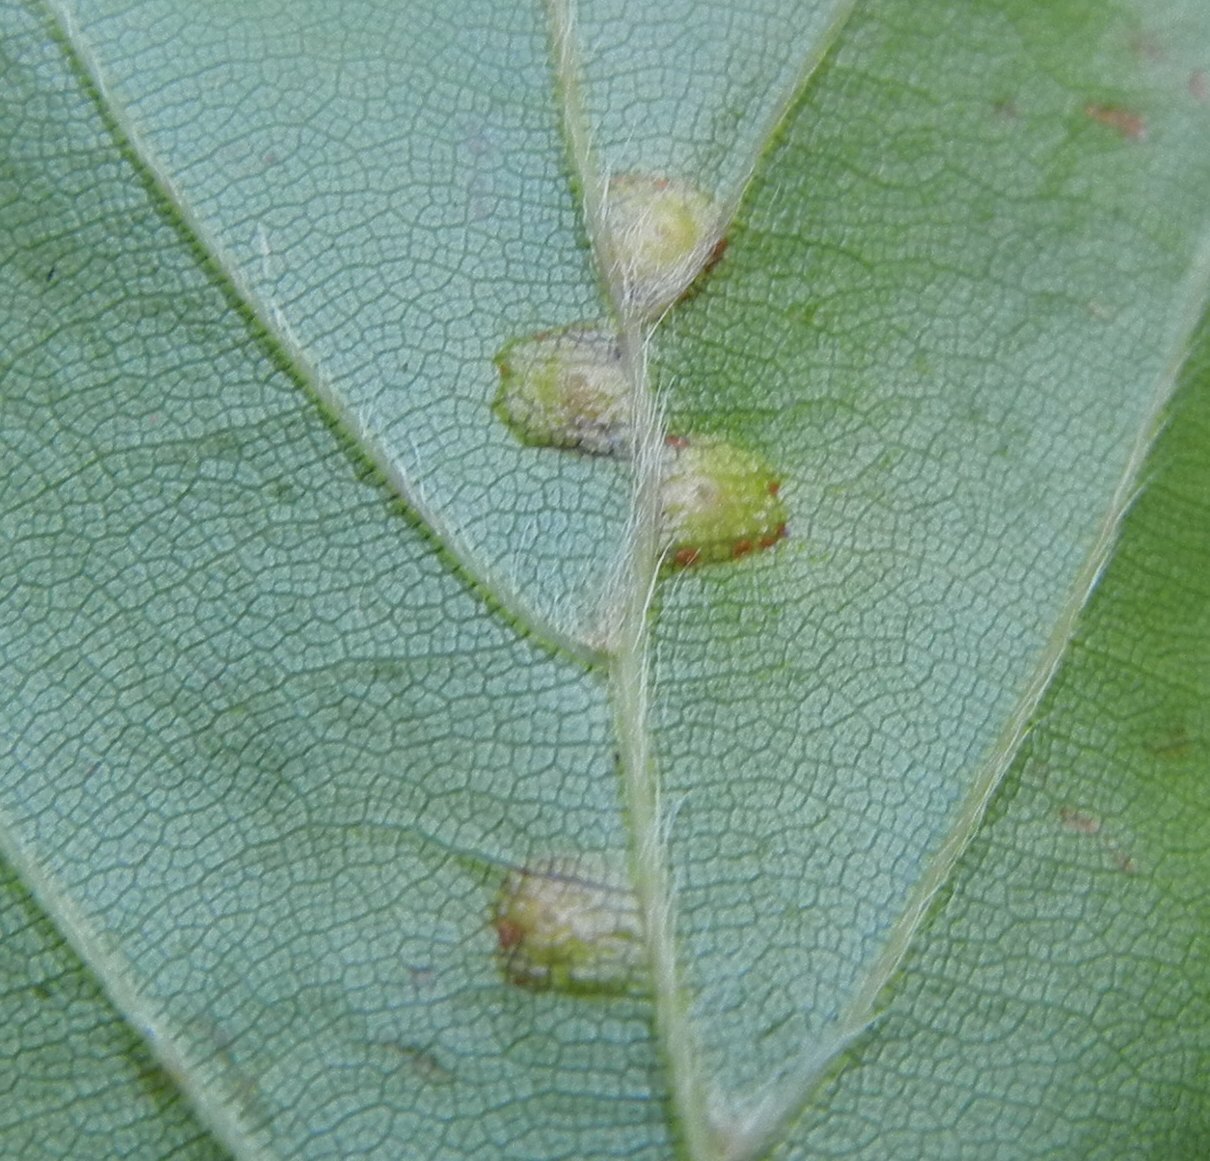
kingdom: Animalia
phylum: Arthropoda
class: Insecta
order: Diptera
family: Cecidomyiidae
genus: Hartigiola
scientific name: Hartigiola annulipes
